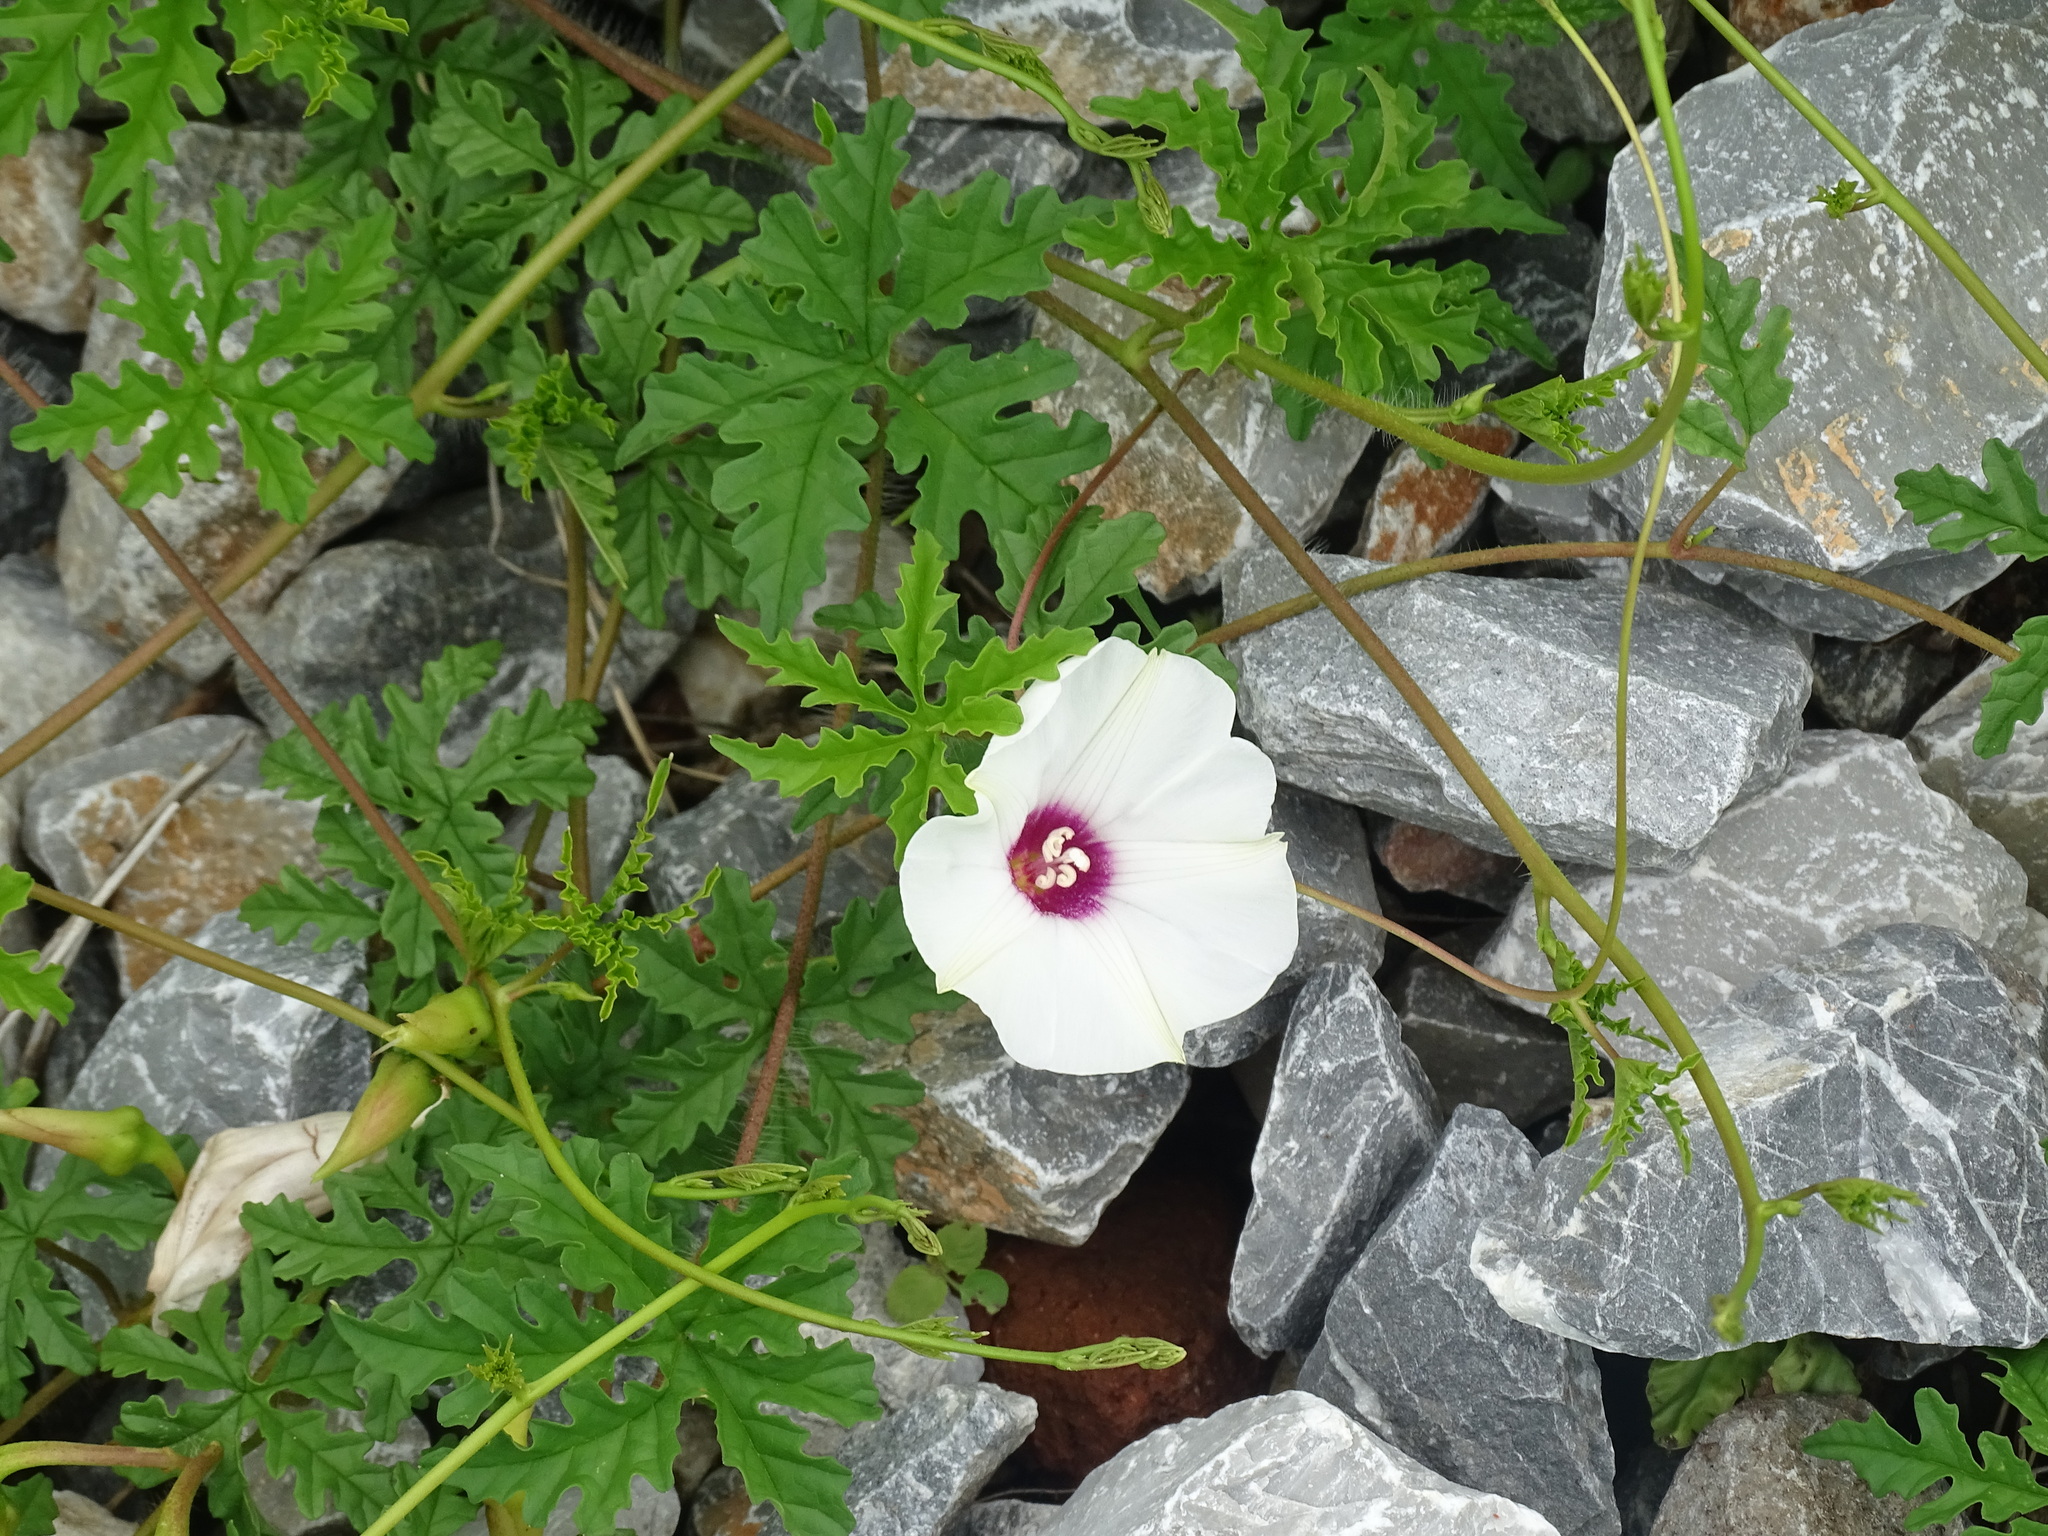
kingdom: Plantae
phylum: Tracheophyta
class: Magnoliopsida
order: Solanales
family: Convolvulaceae
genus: Distimake
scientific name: Distimake dissectus
